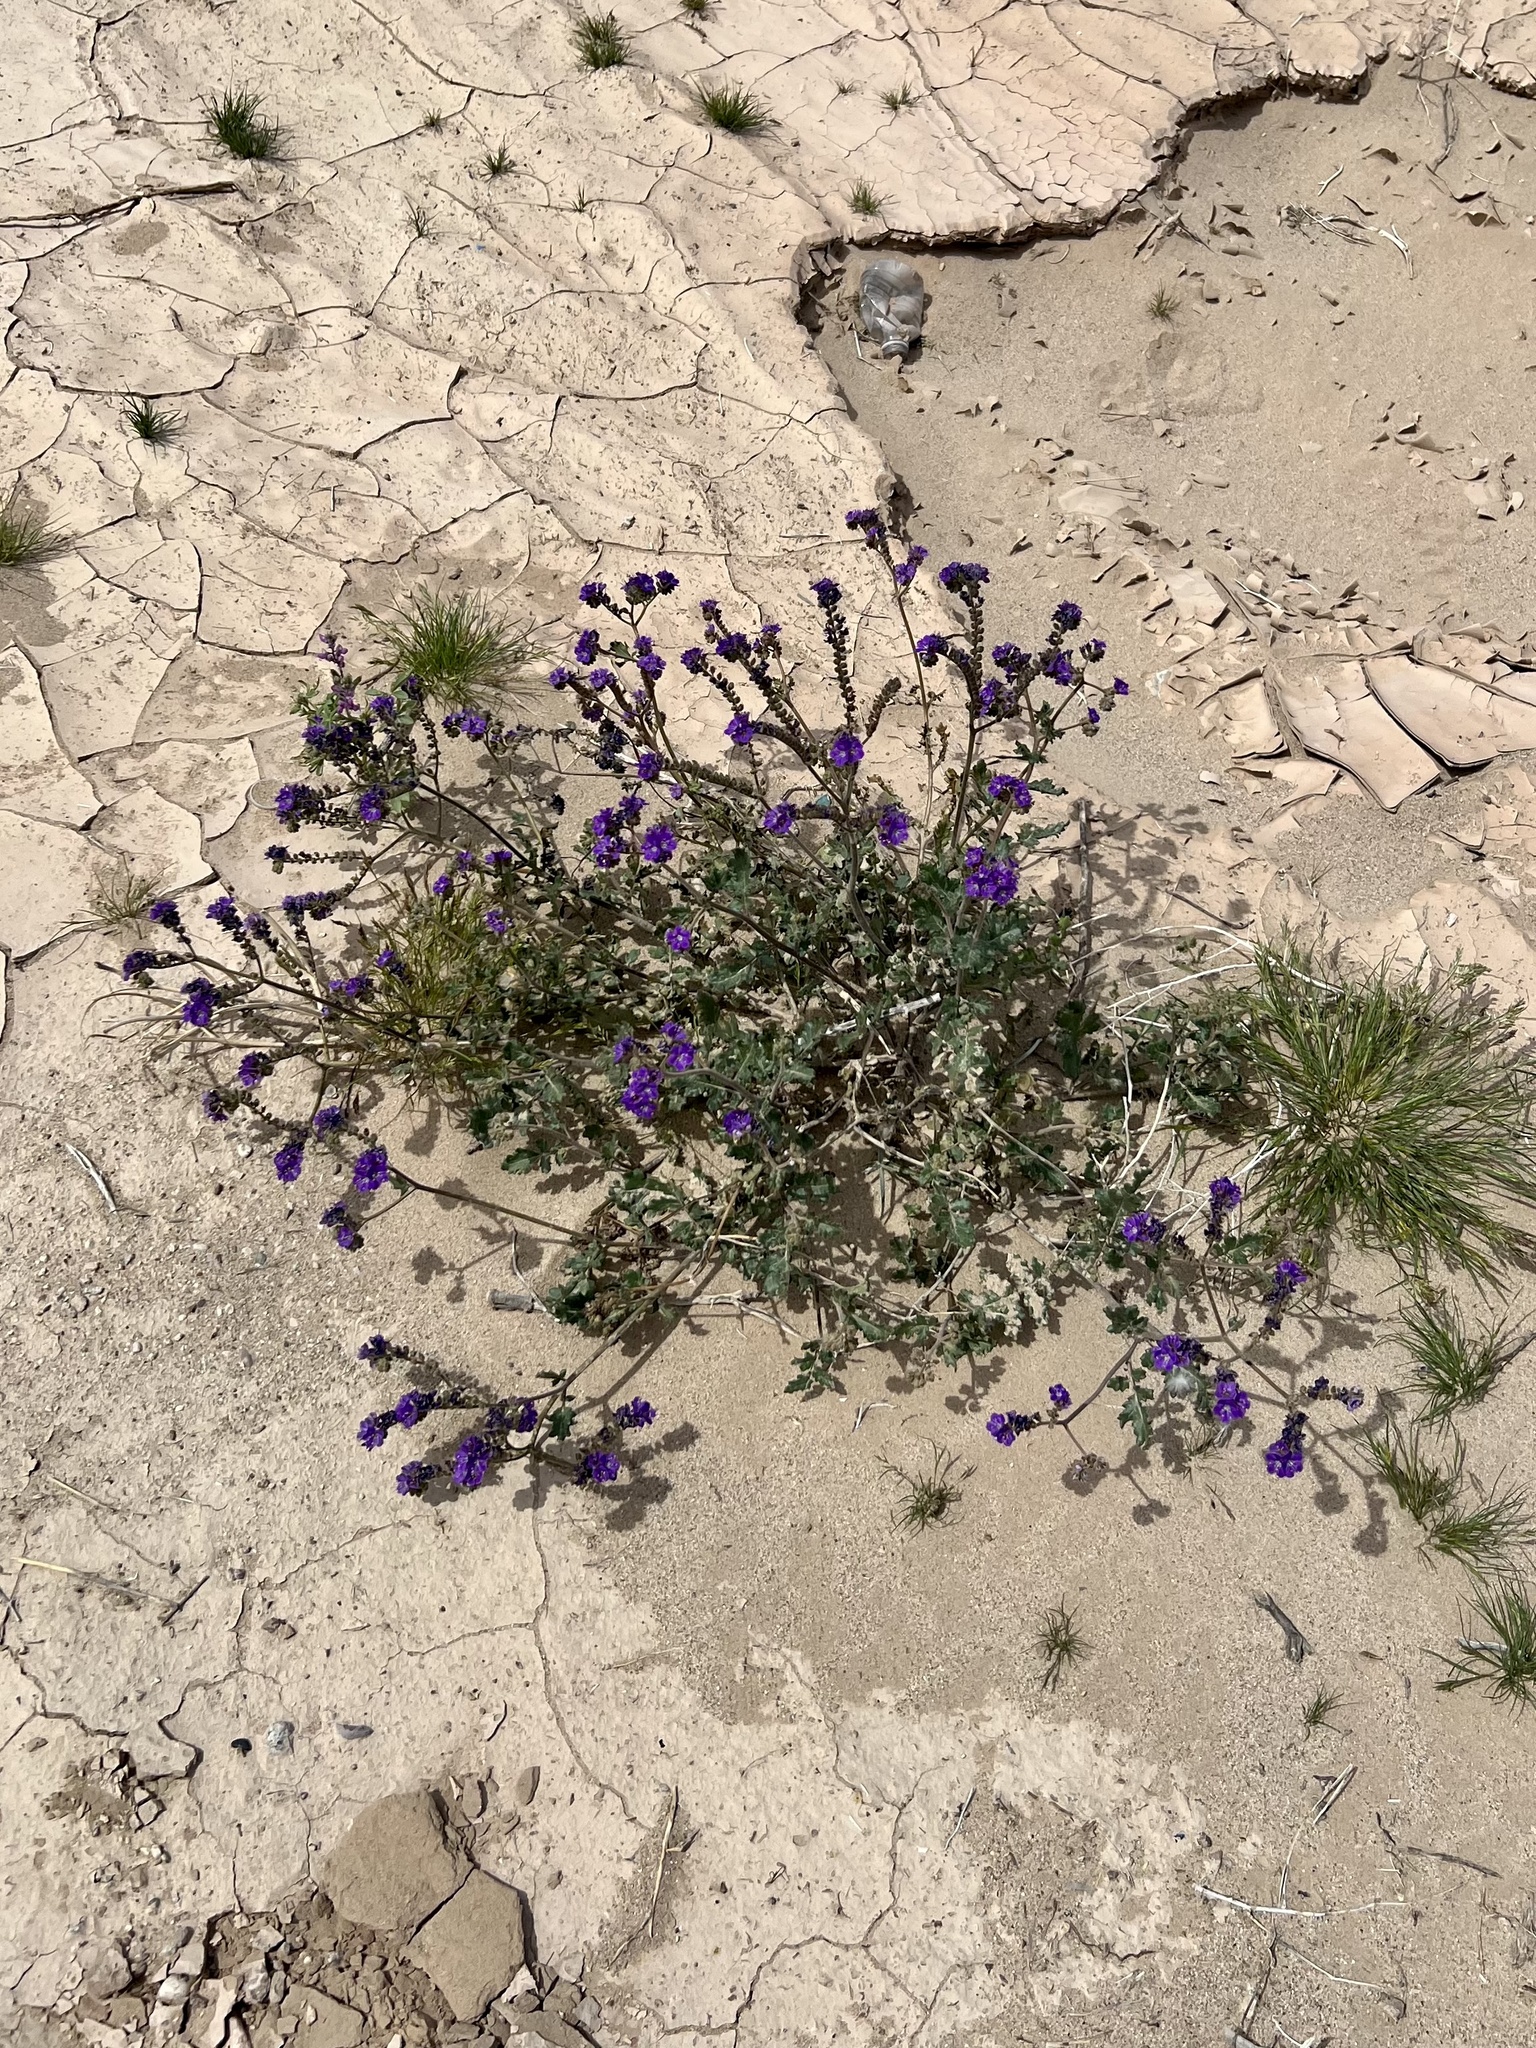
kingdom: Plantae
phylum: Tracheophyta
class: Magnoliopsida
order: Boraginales
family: Hydrophyllaceae
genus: Phacelia
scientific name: Phacelia crenulata
